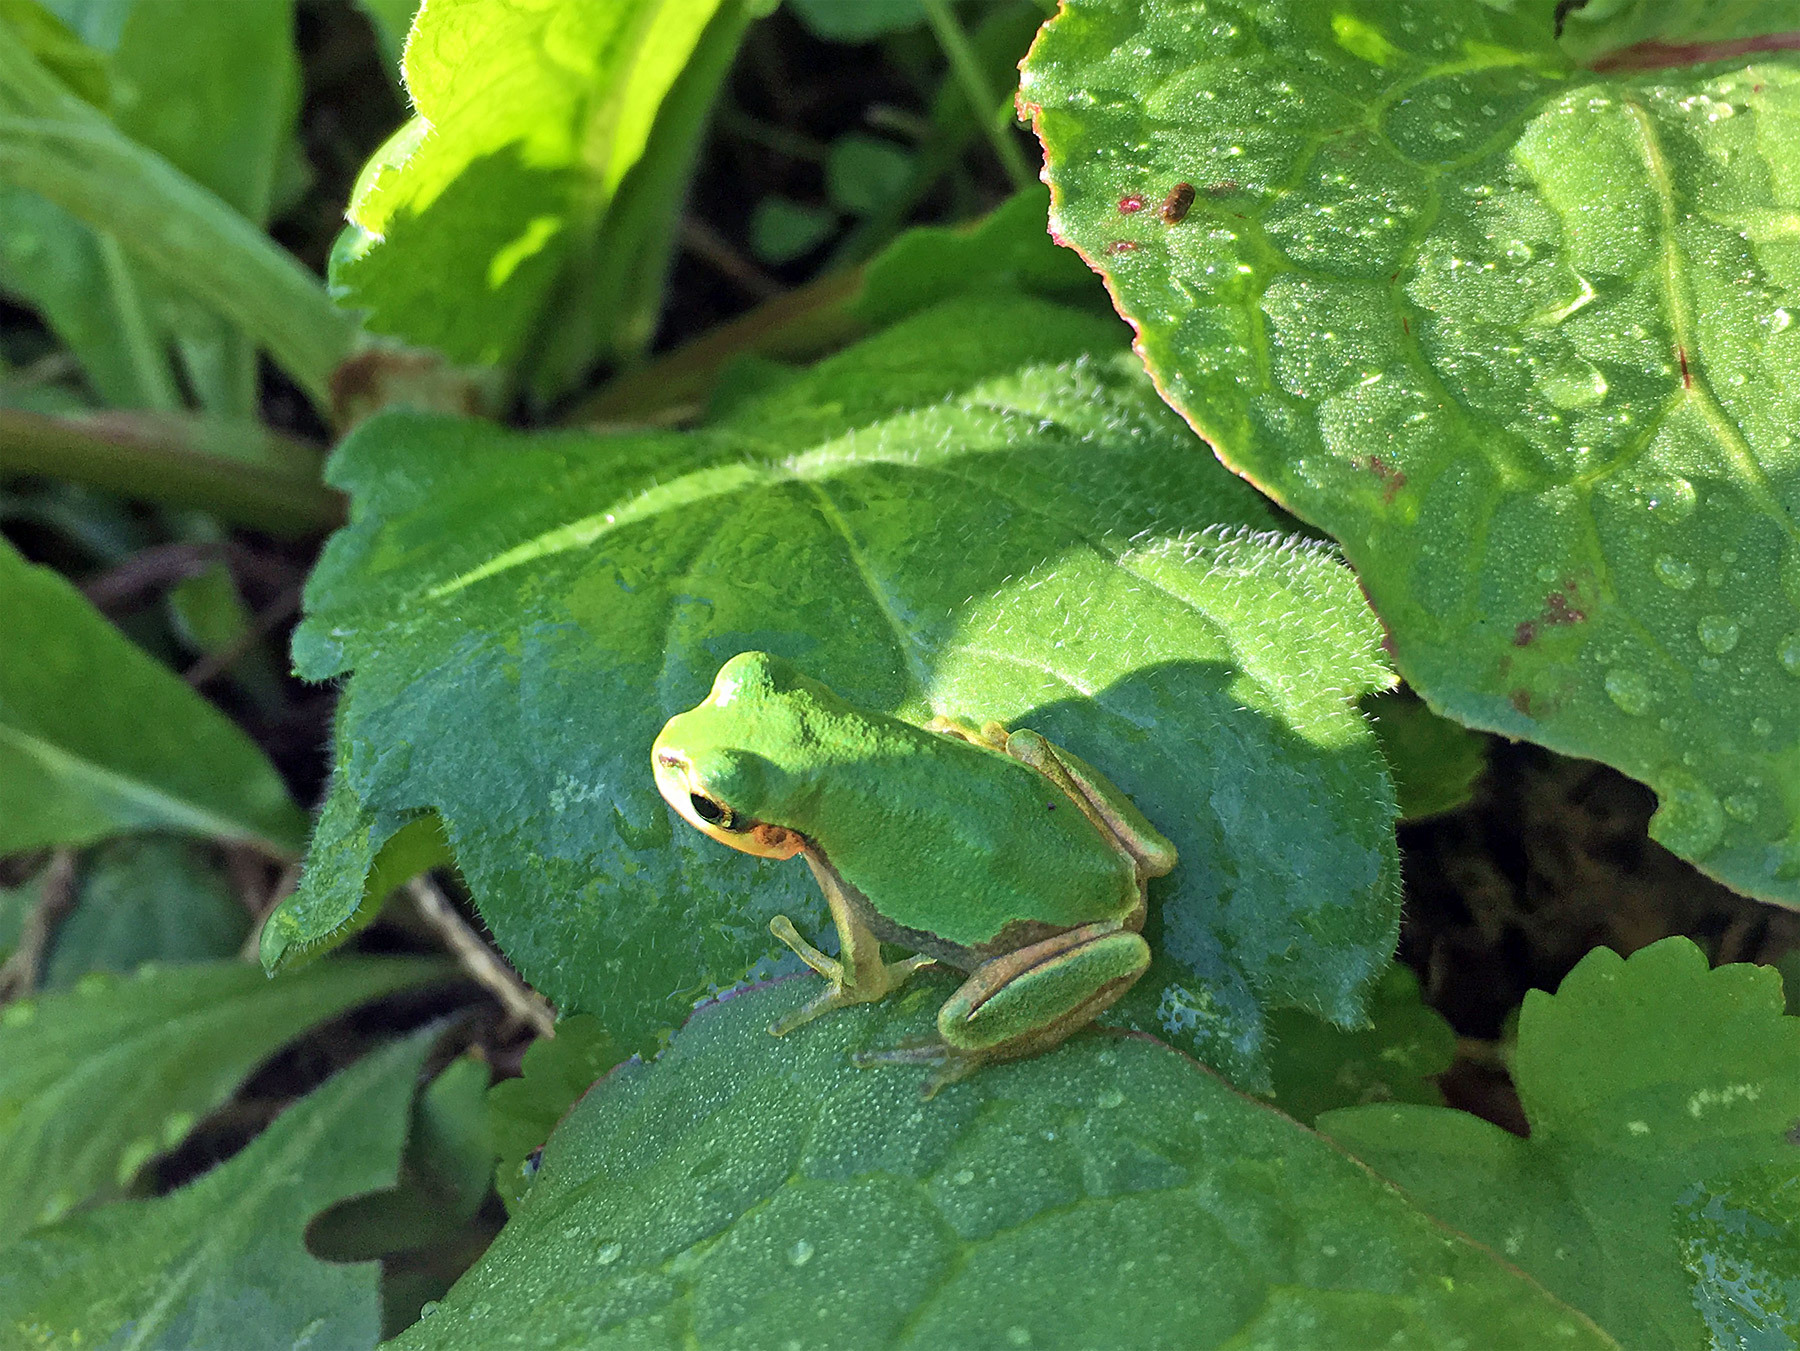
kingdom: Animalia
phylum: Chordata
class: Amphibia
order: Anura
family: Hylidae
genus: Dryophytes
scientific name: Dryophytes japonicus
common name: Japanese treefrog
